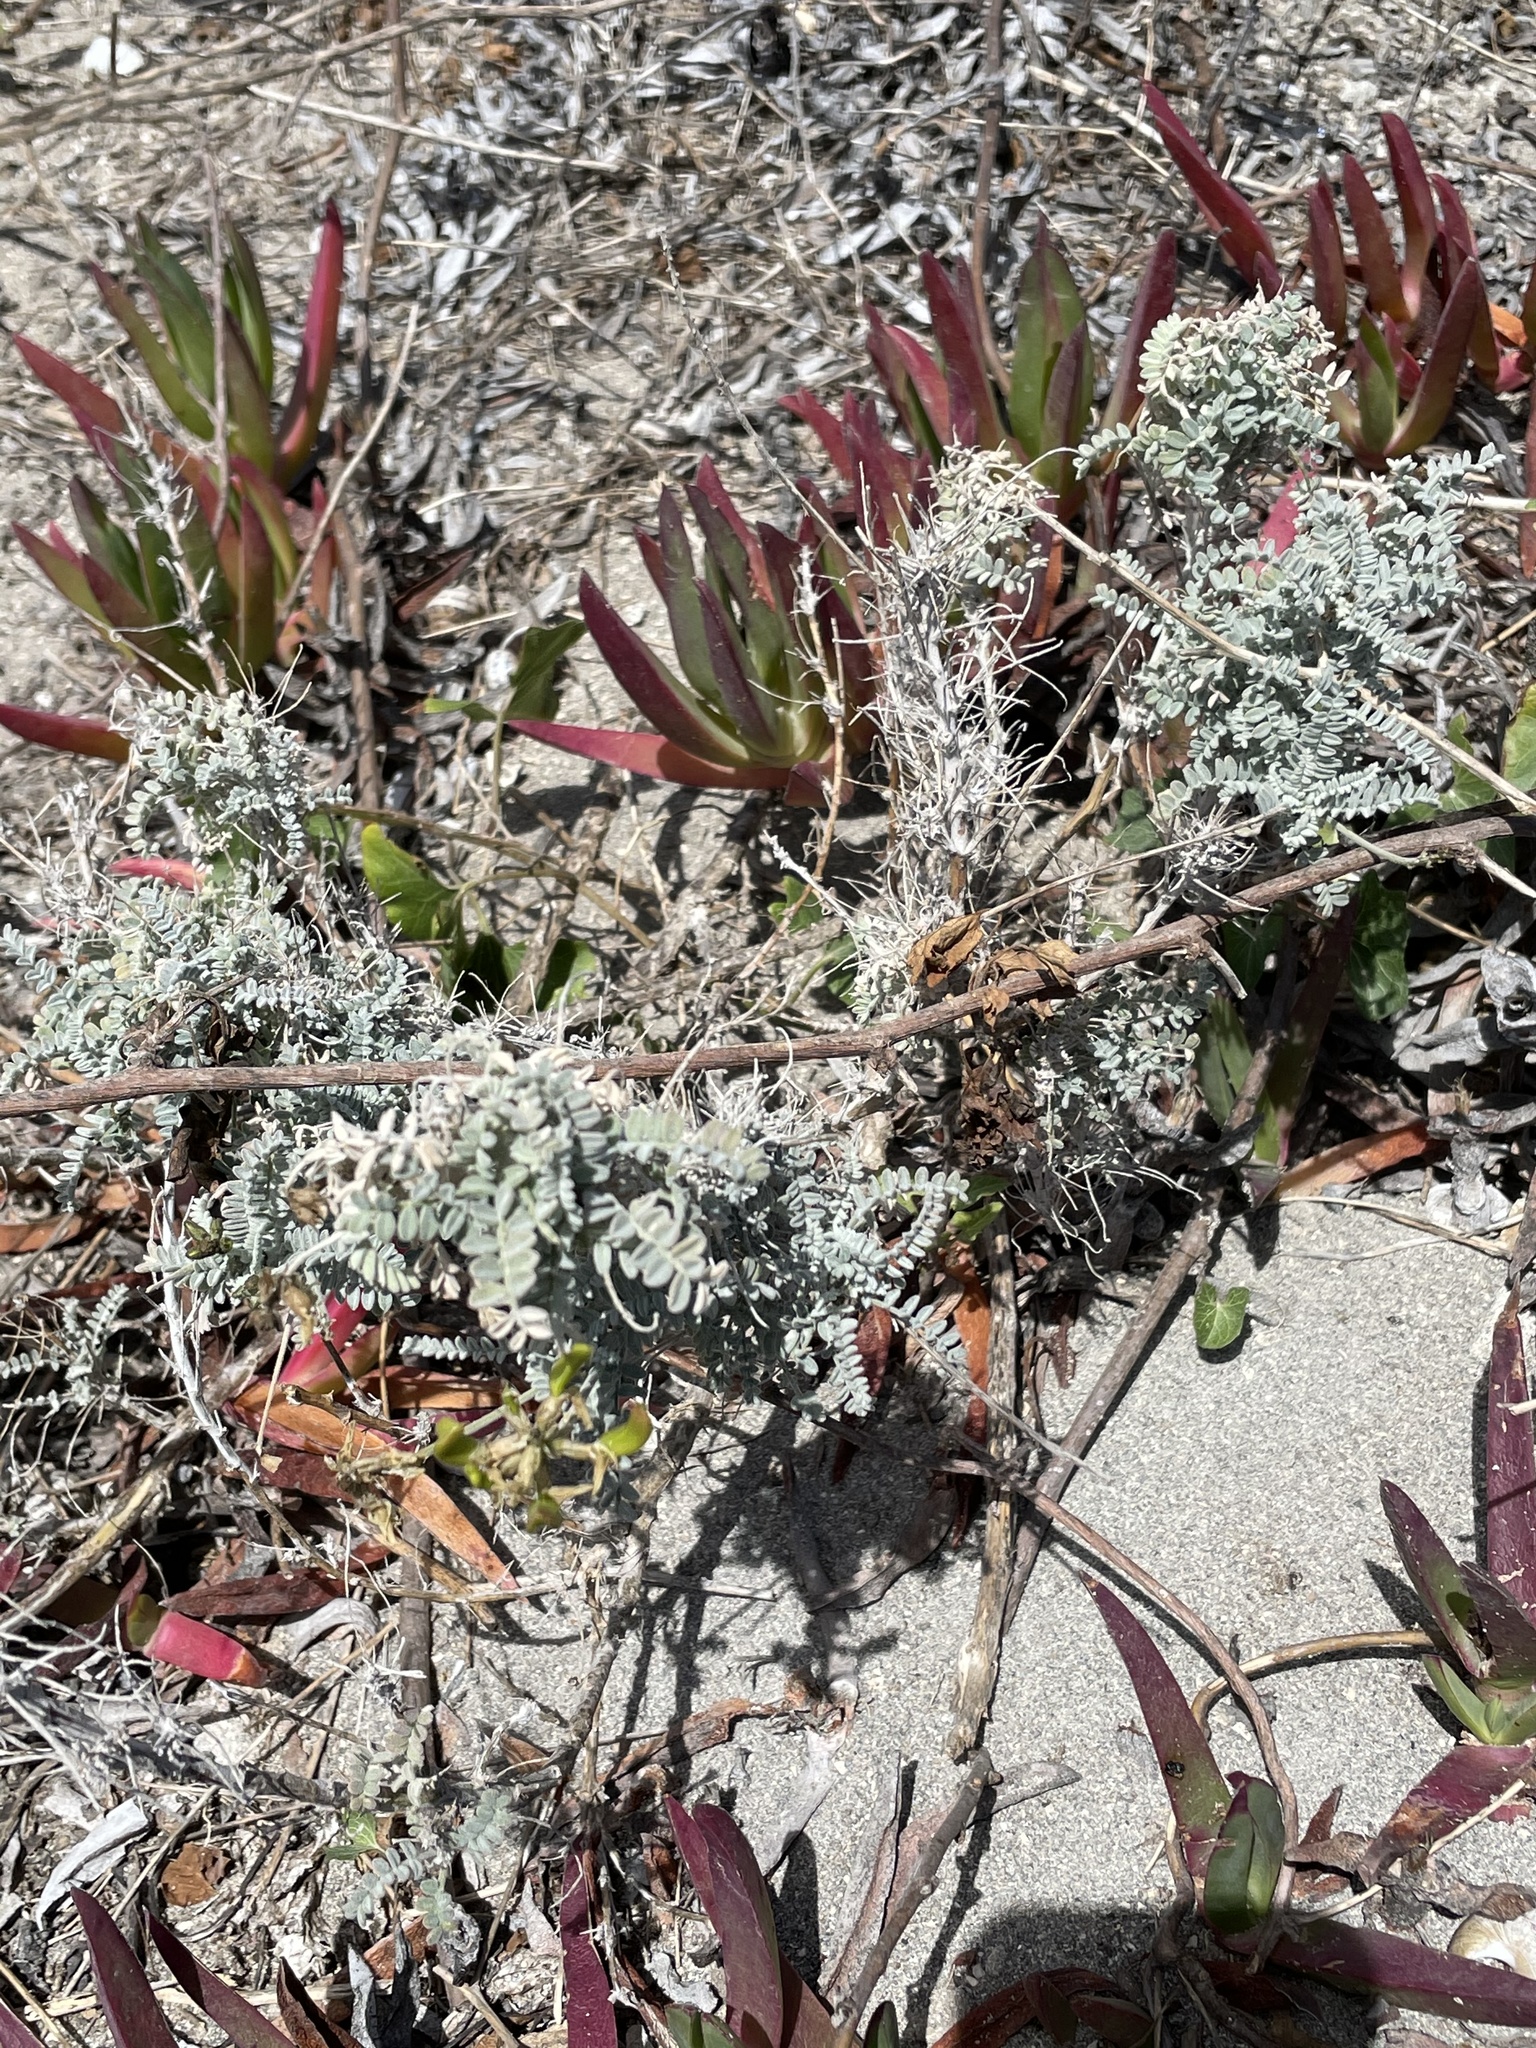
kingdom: Plantae
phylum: Tracheophyta
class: Magnoliopsida
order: Fabales
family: Fabaceae
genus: Astragalus
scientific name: Astragalus nevinii
